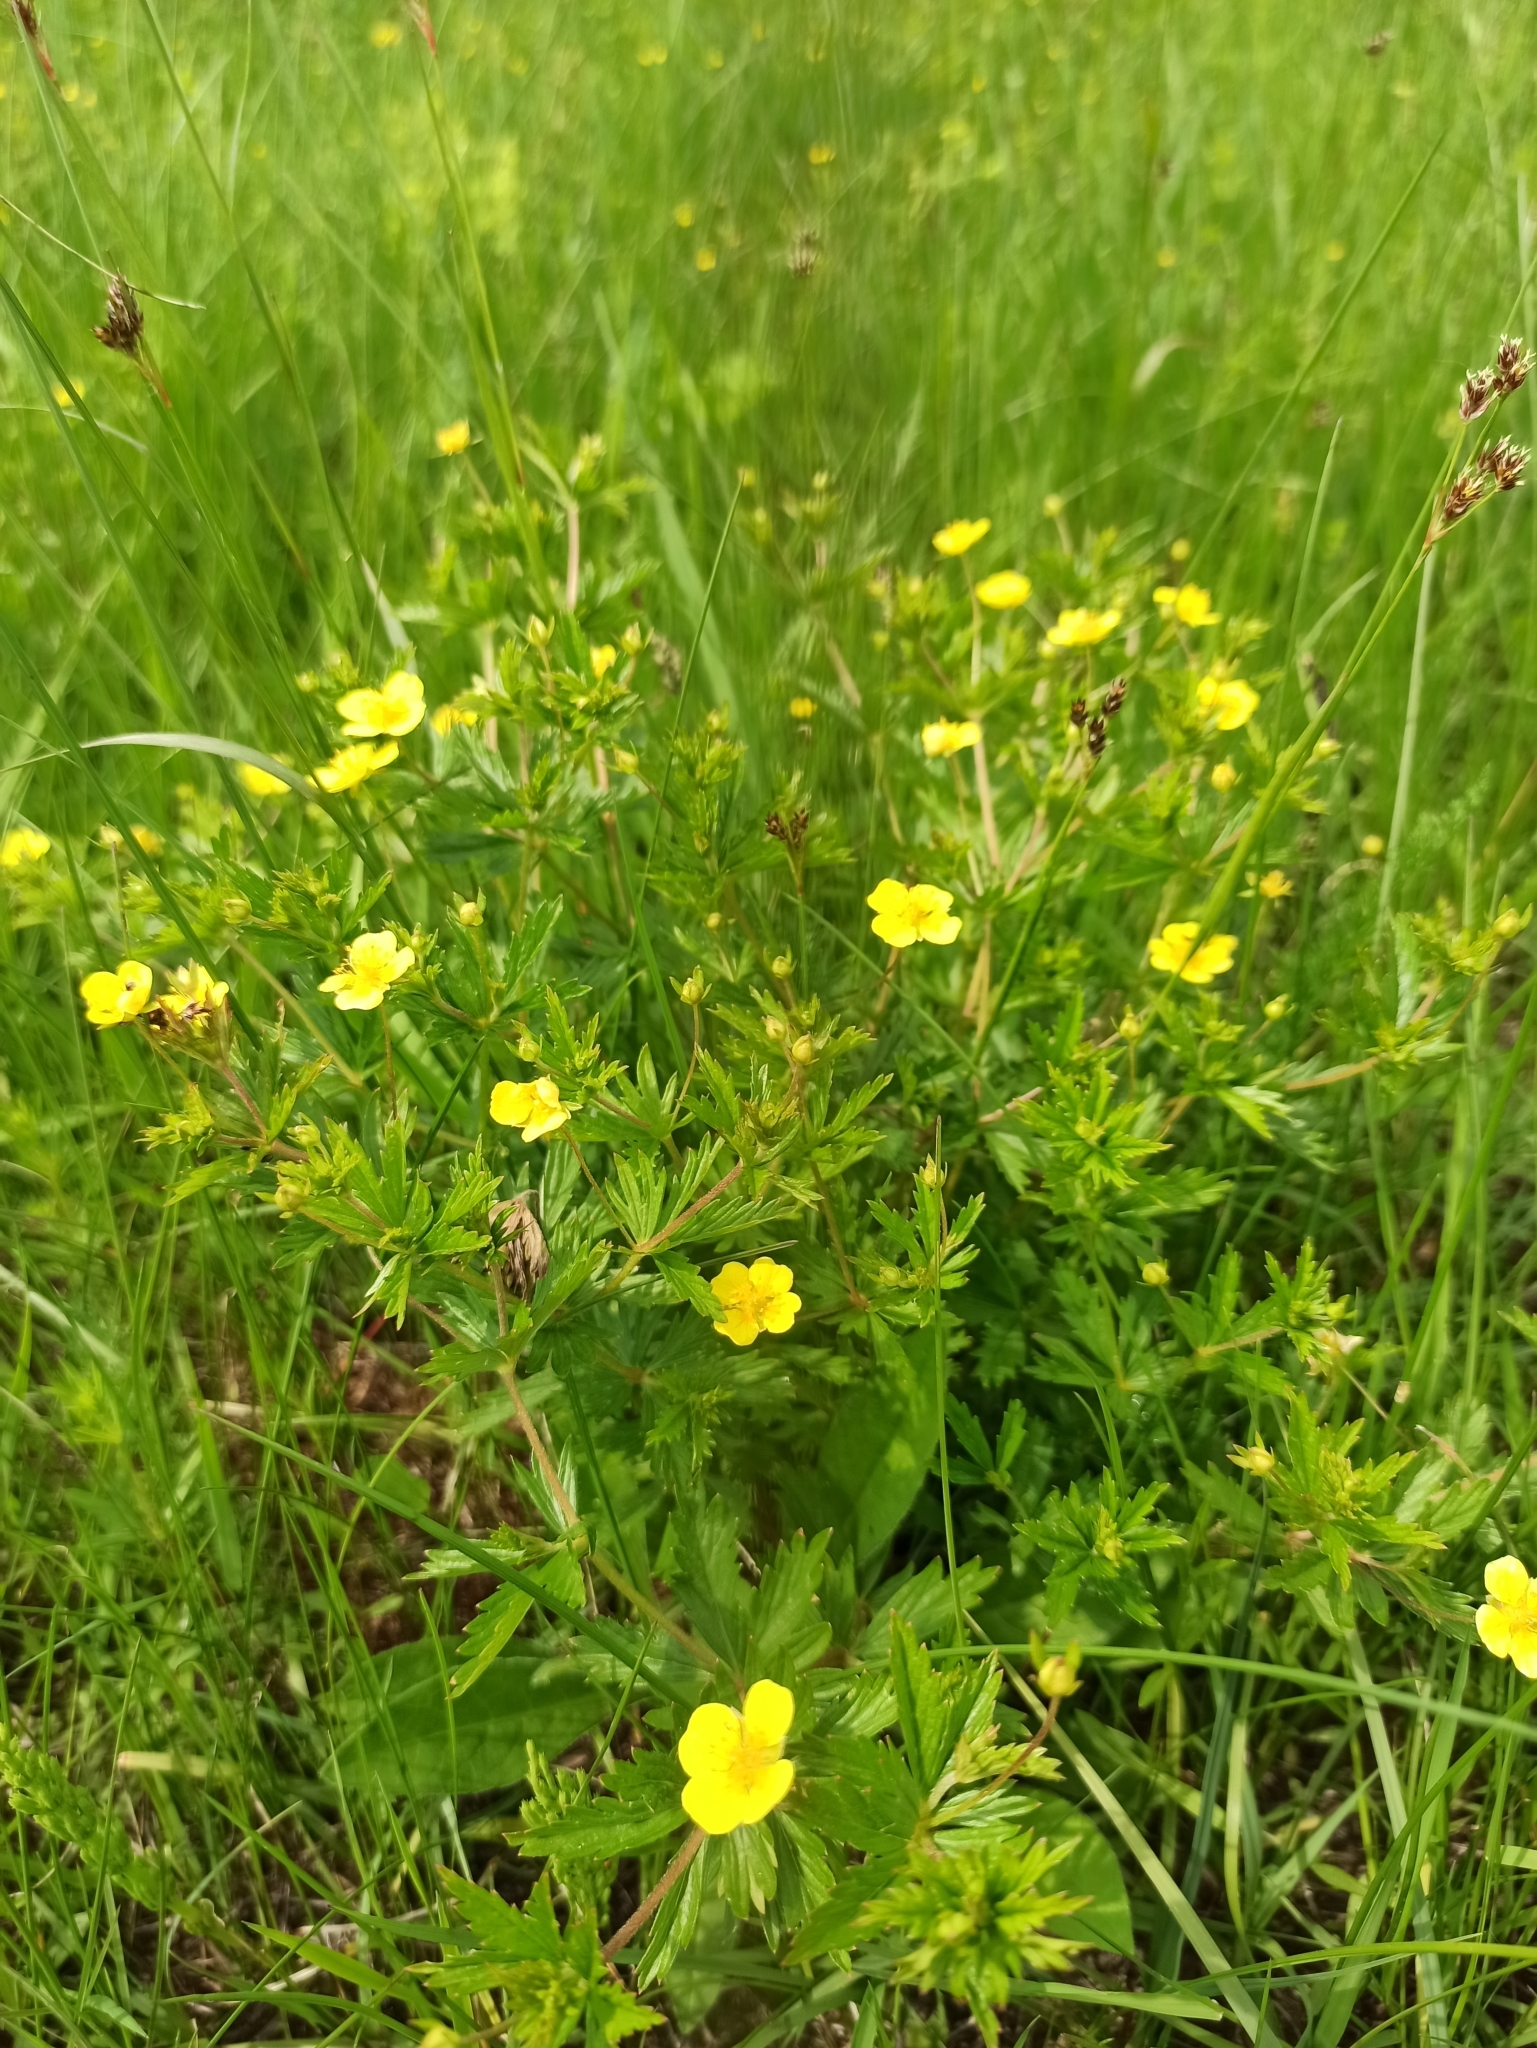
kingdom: Plantae
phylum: Tracheophyta
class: Magnoliopsida
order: Rosales
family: Rosaceae
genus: Potentilla
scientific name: Potentilla erecta
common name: Tormentil
